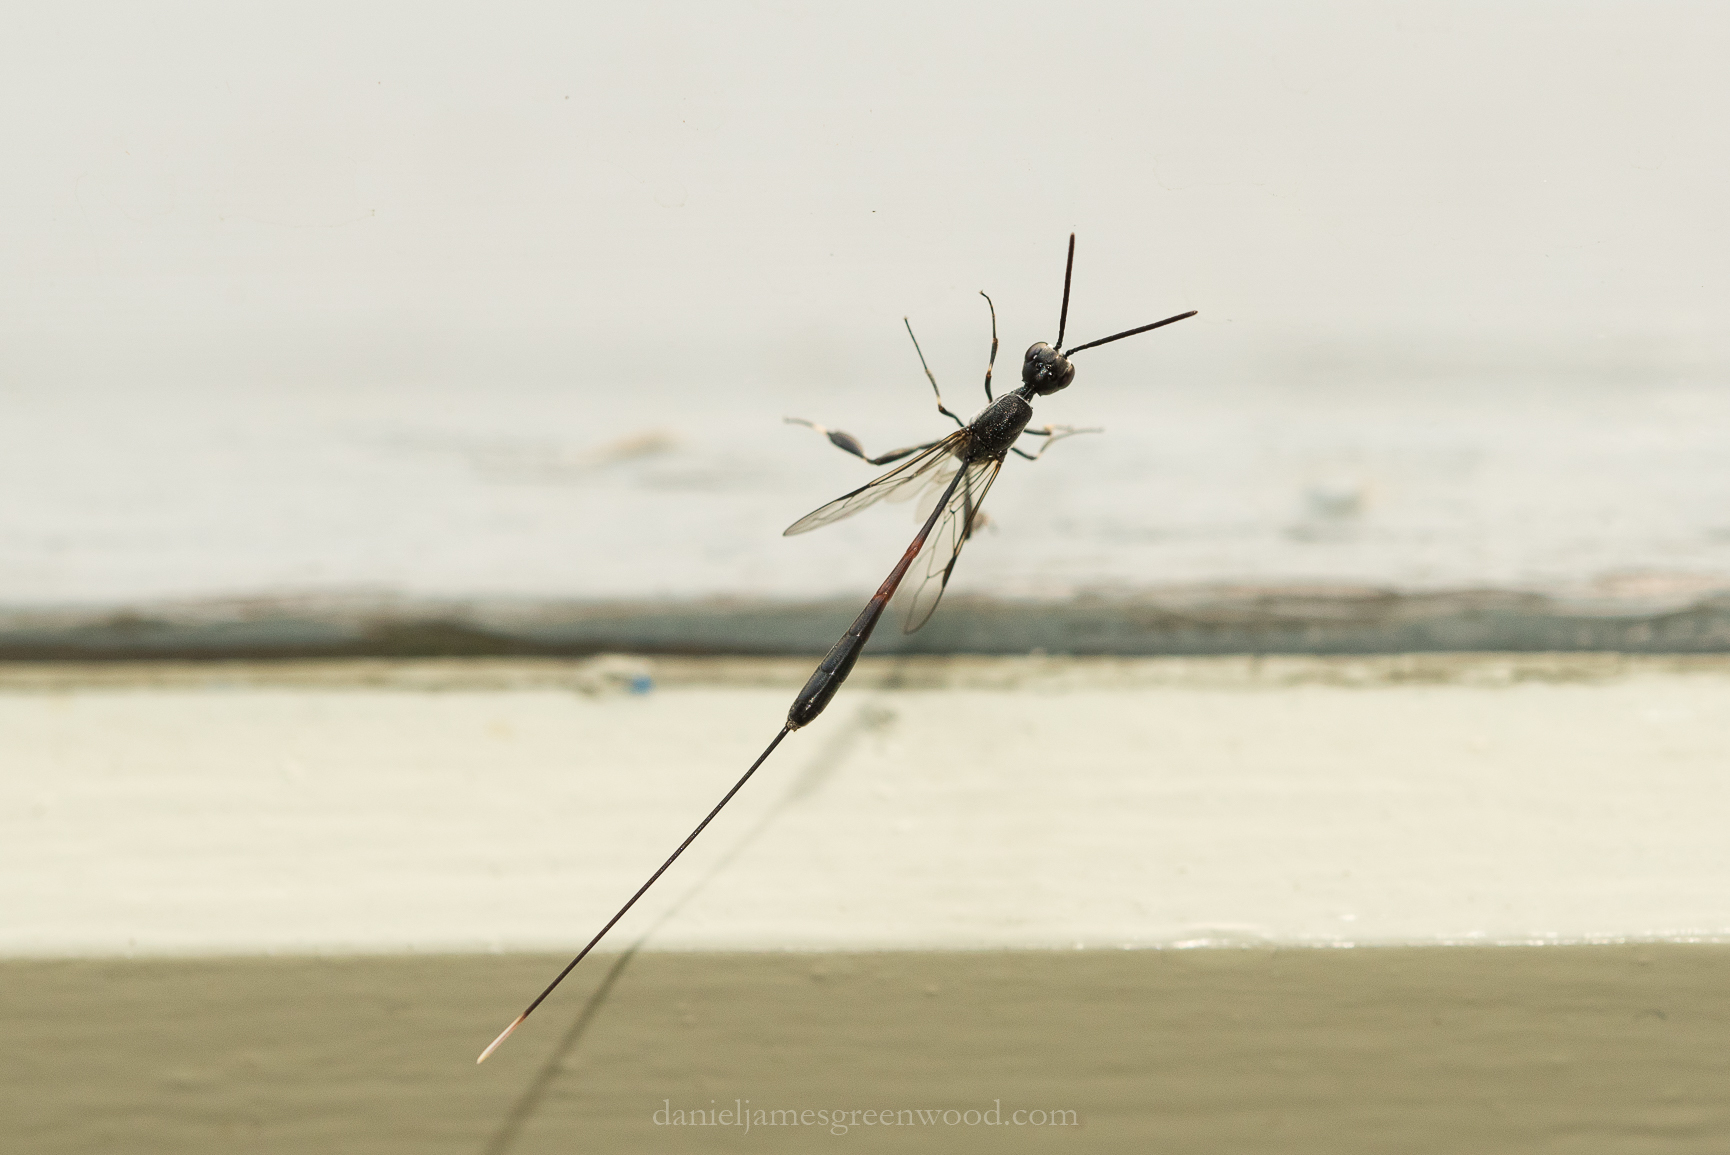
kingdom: Animalia
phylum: Arthropoda
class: Insecta
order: Hymenoptera
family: Gasteruptiidae
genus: Gasteruption
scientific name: Gasteruption jaculator
